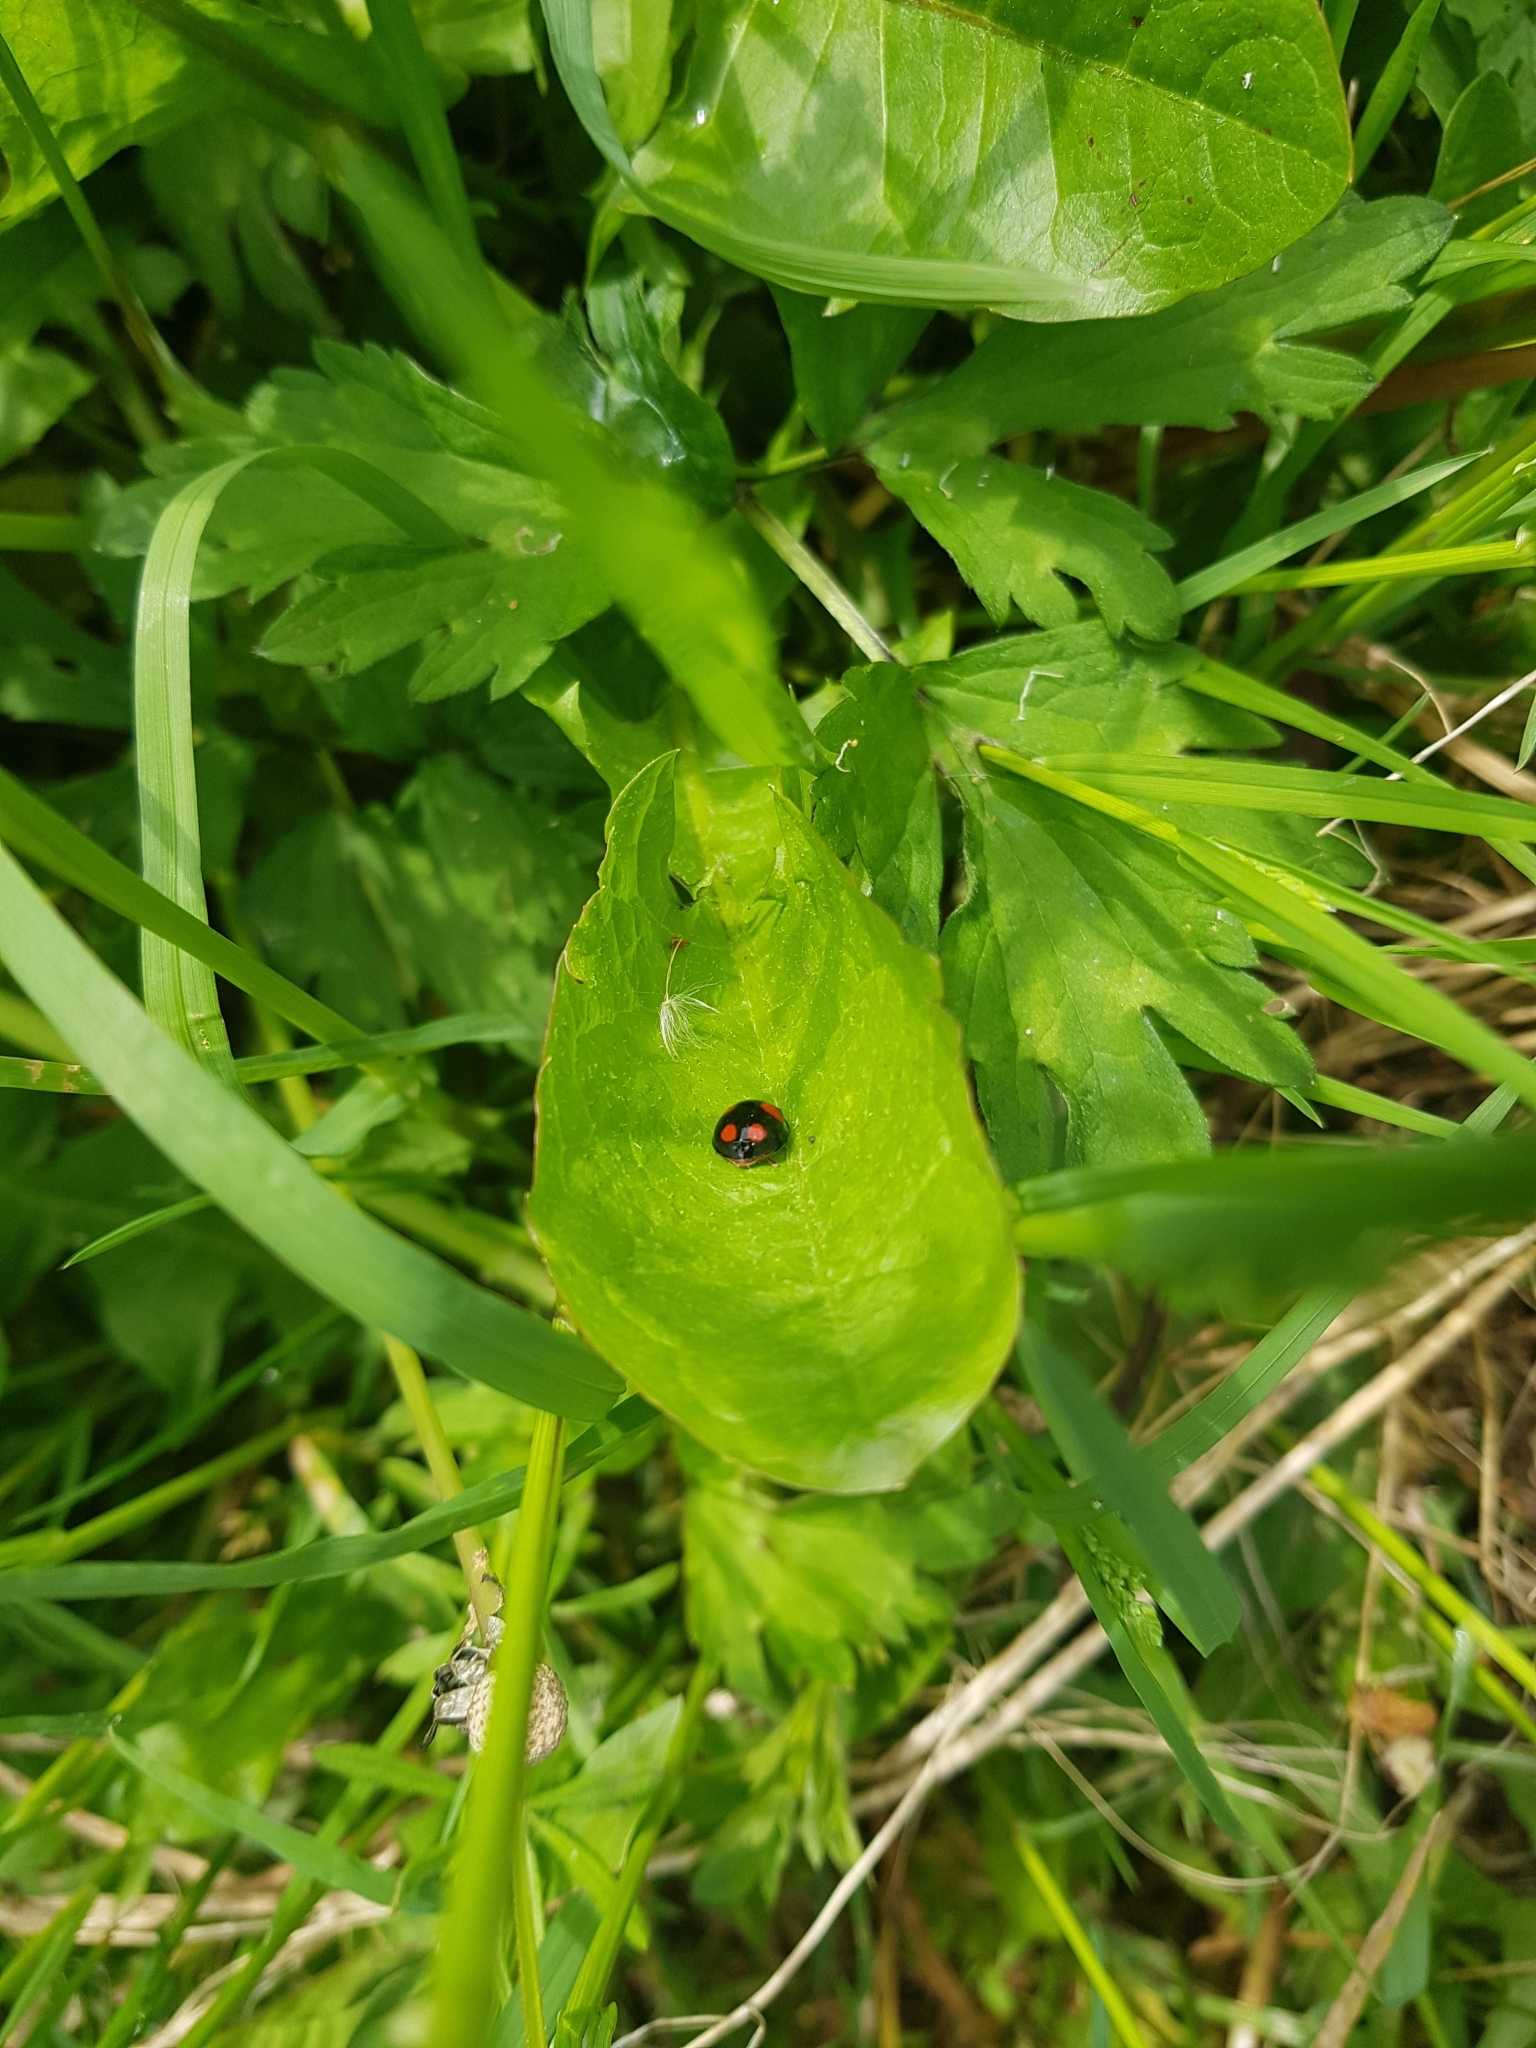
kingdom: Animalia
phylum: Arthropoda
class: Insecta
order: Coleoptera
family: Coccinellidae
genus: Harmonia
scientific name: Harmonia axyridis
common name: Harlequin ladybird
